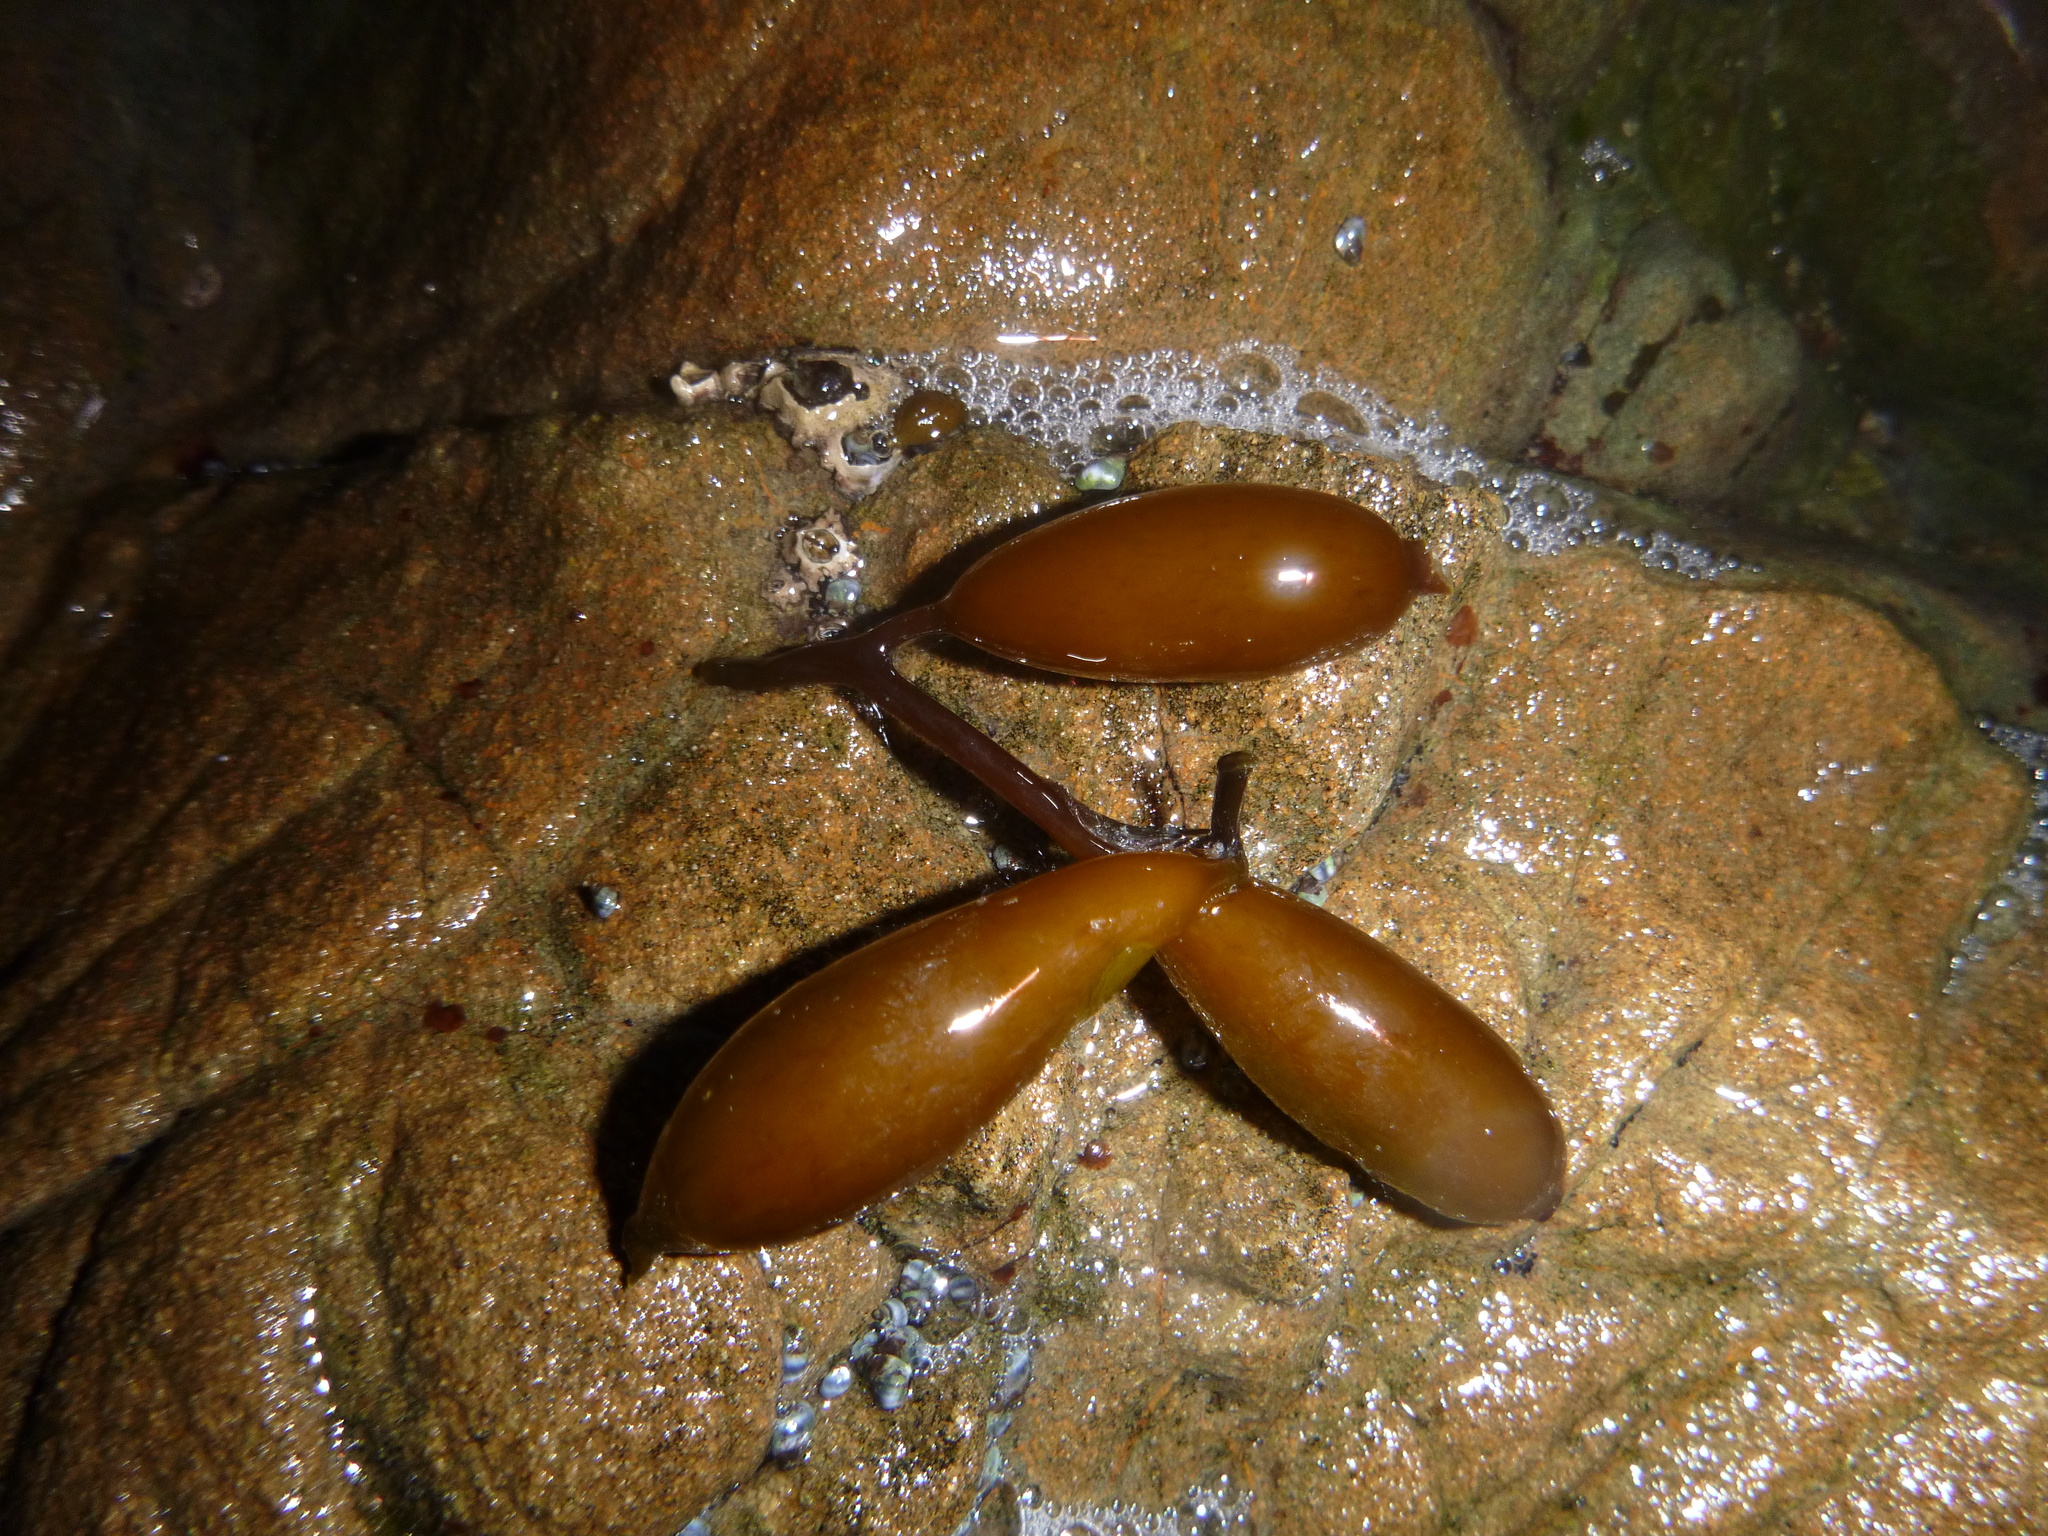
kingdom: Chromista
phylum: Ochrophyta
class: Phaeophyceae
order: Laminariales
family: Laminariaceae
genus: Macrocystis
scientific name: Macrocystis pyrifera
